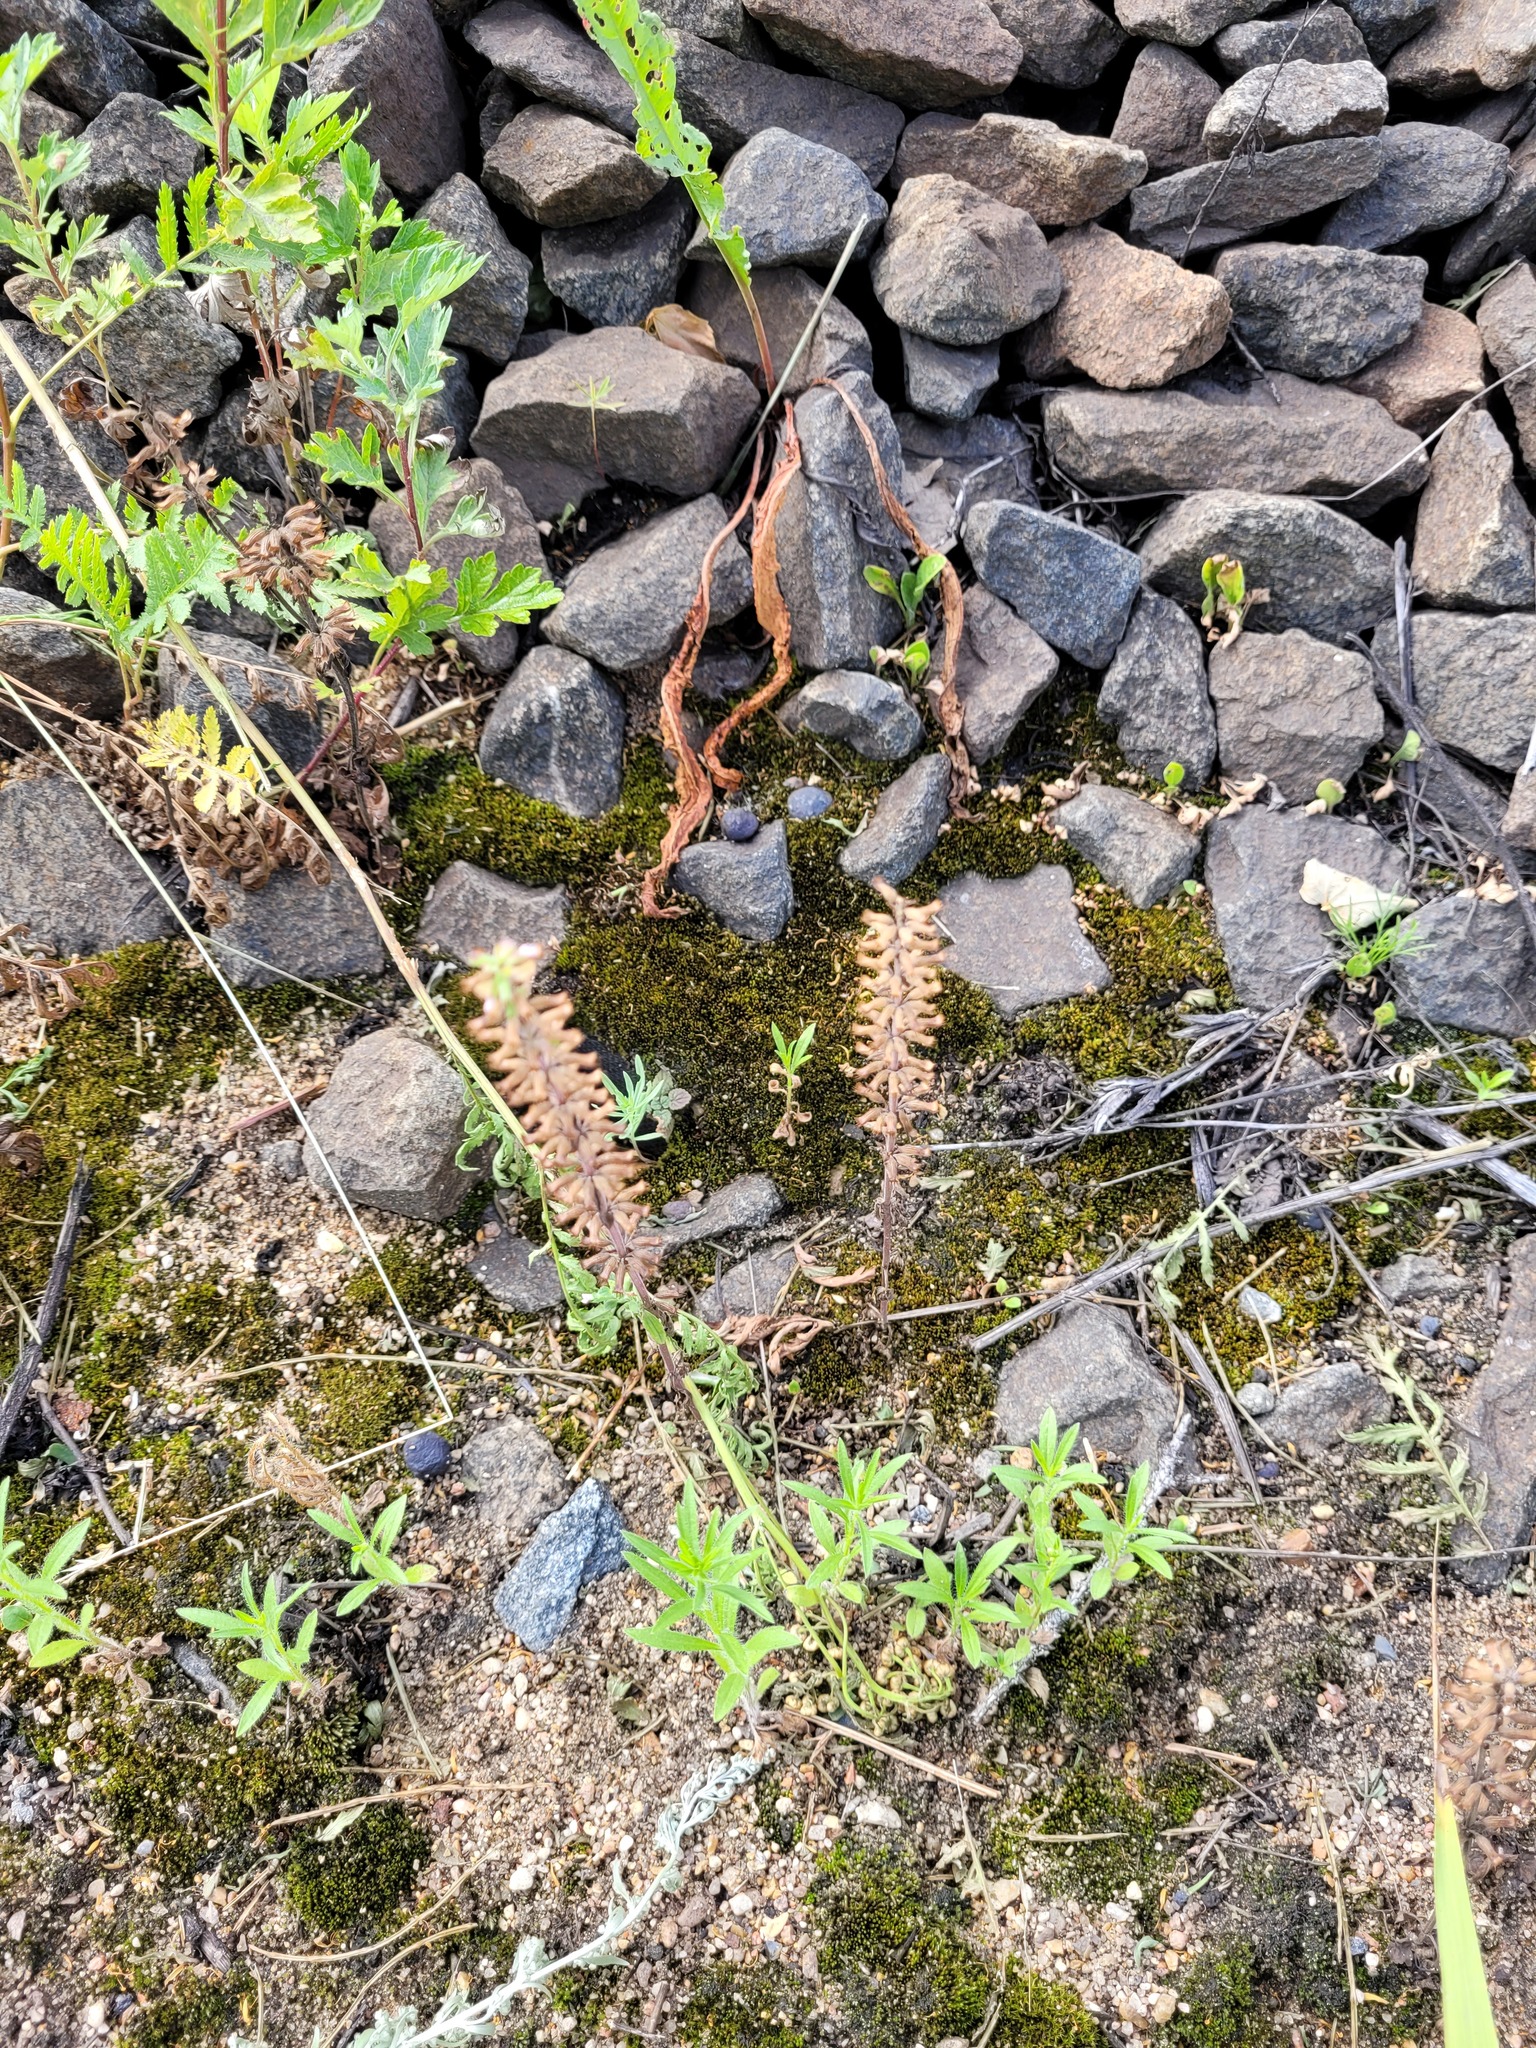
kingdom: Plantae
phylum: Tracheophyta
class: Magnoliopsida
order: Lamiales
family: Lamiaceae
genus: Dracocephalum
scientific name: Dracocephalum thymiflorum
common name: Thymeleaf dragonhead
